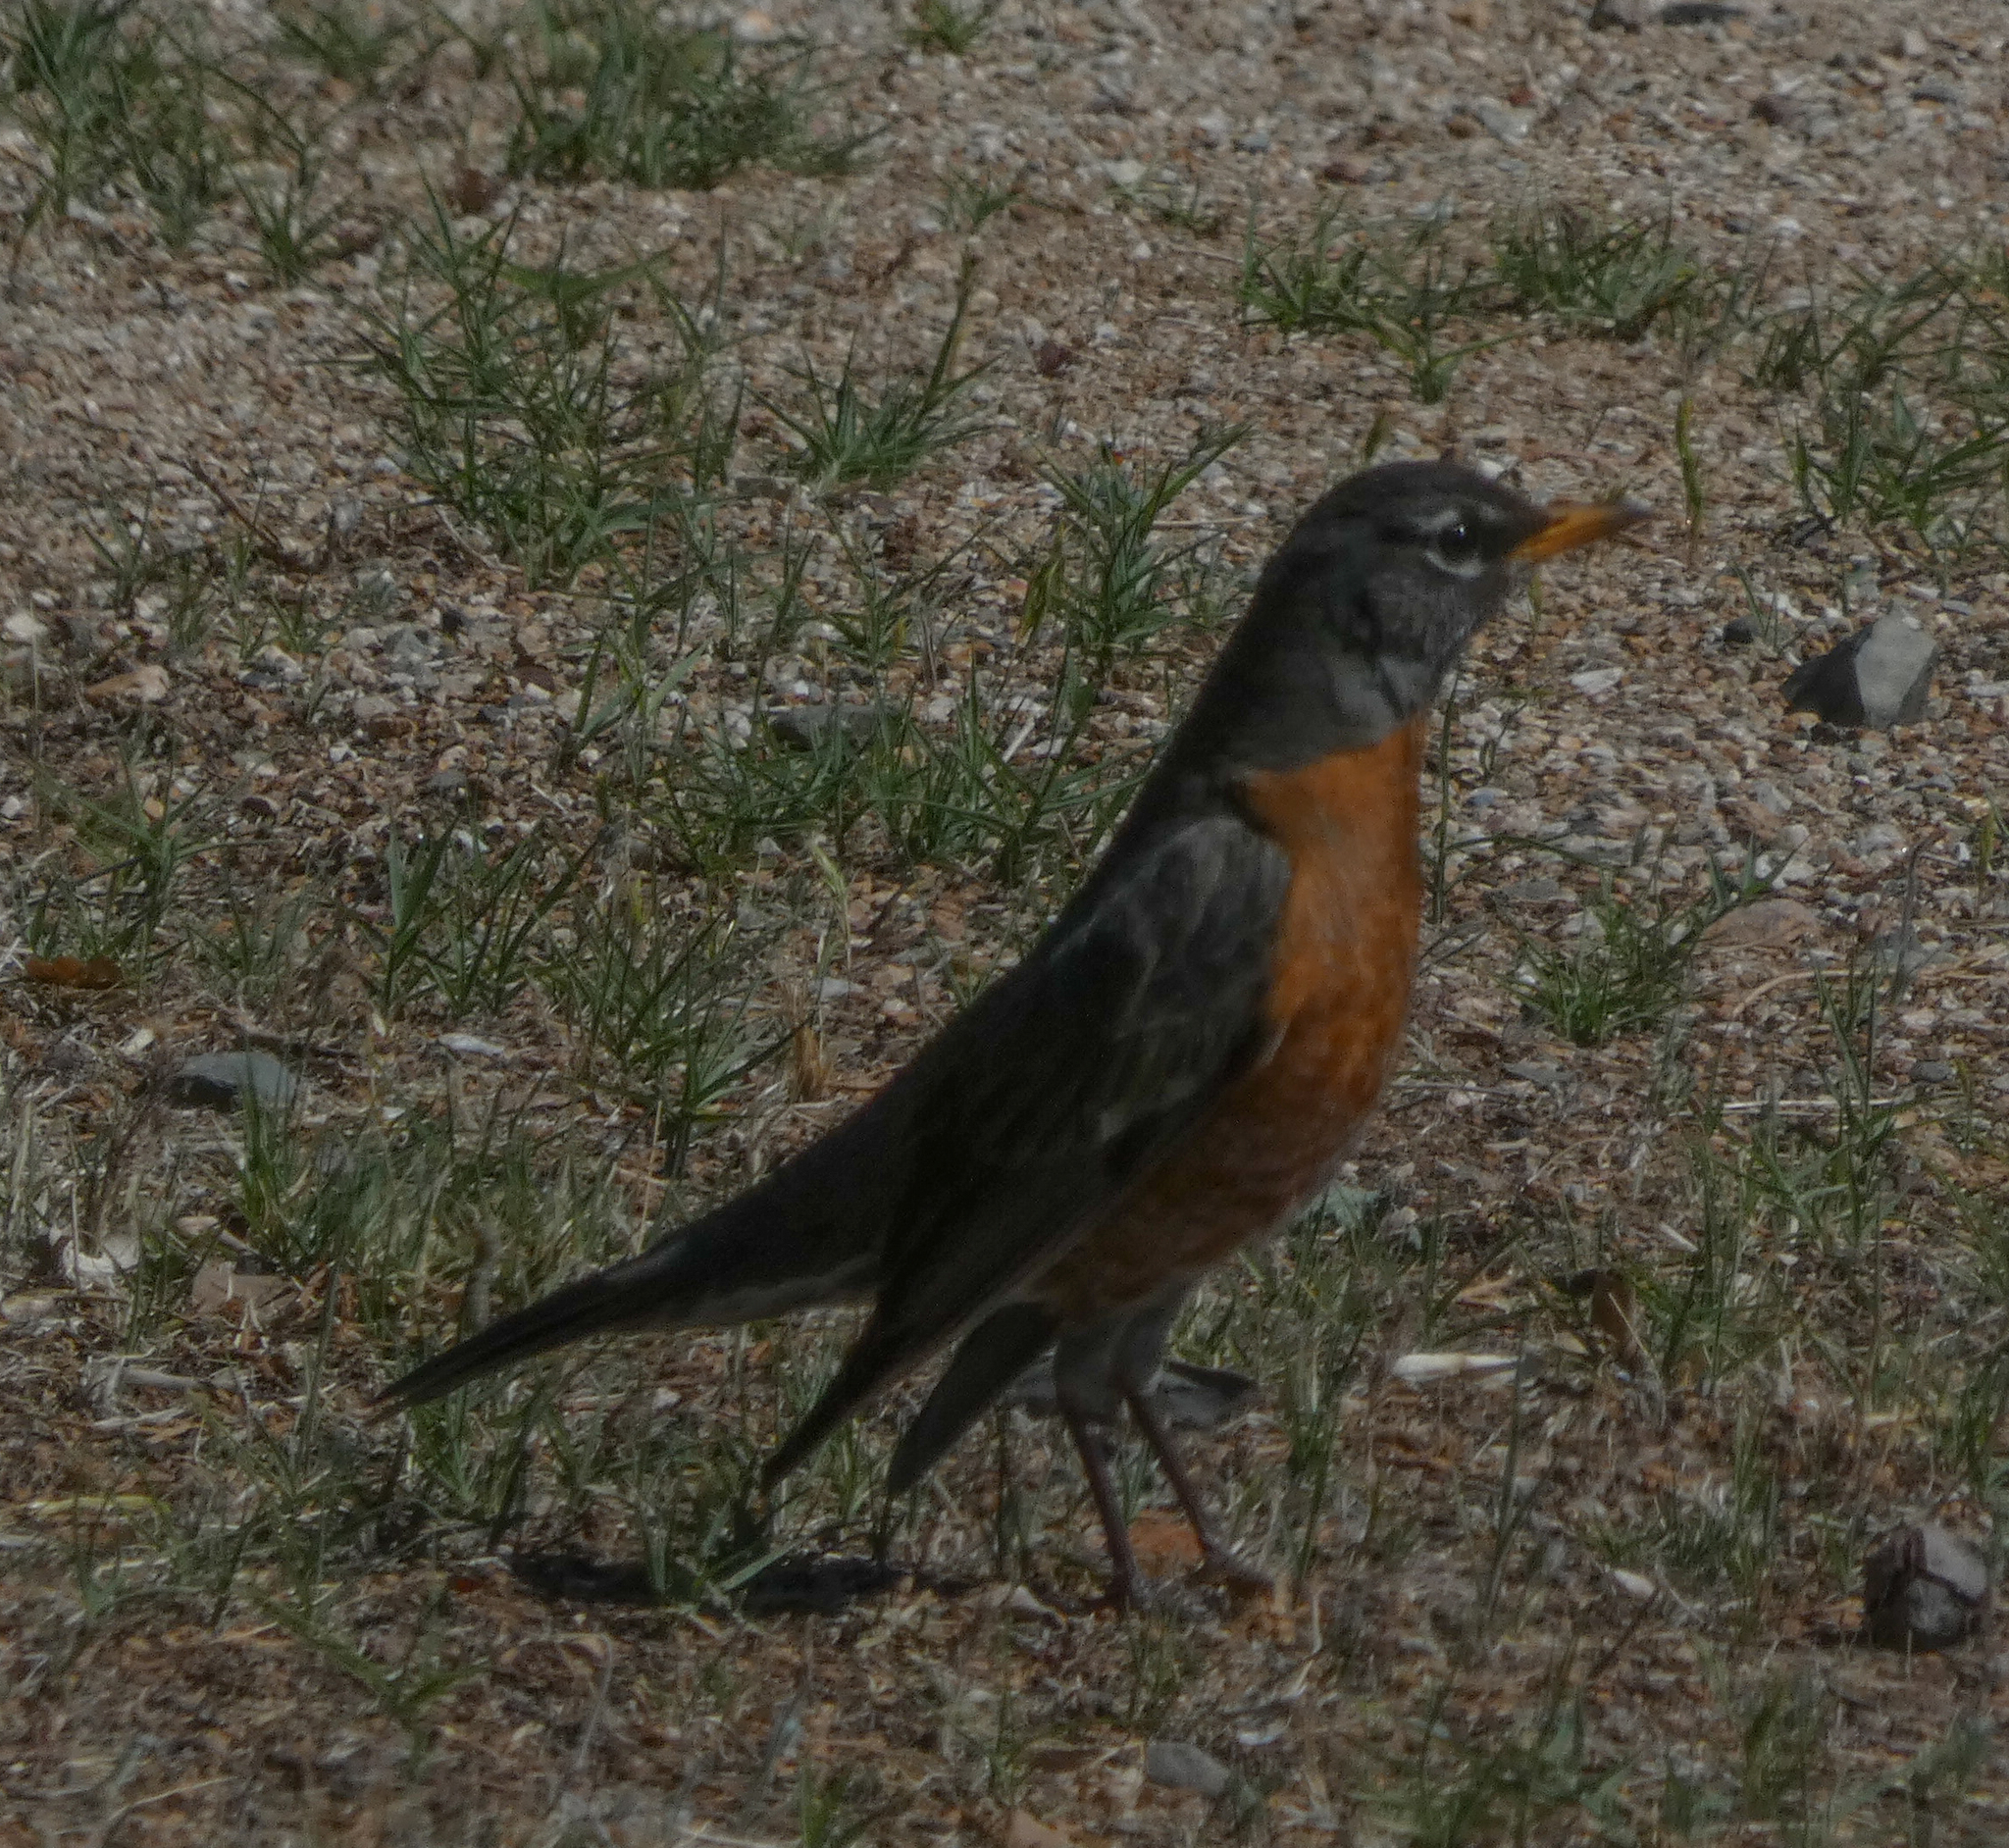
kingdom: Animalia
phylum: Chordata
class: Aves
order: Passeriformes
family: Turdidae
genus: Turdus
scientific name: Turdus migratorius
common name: American robin
